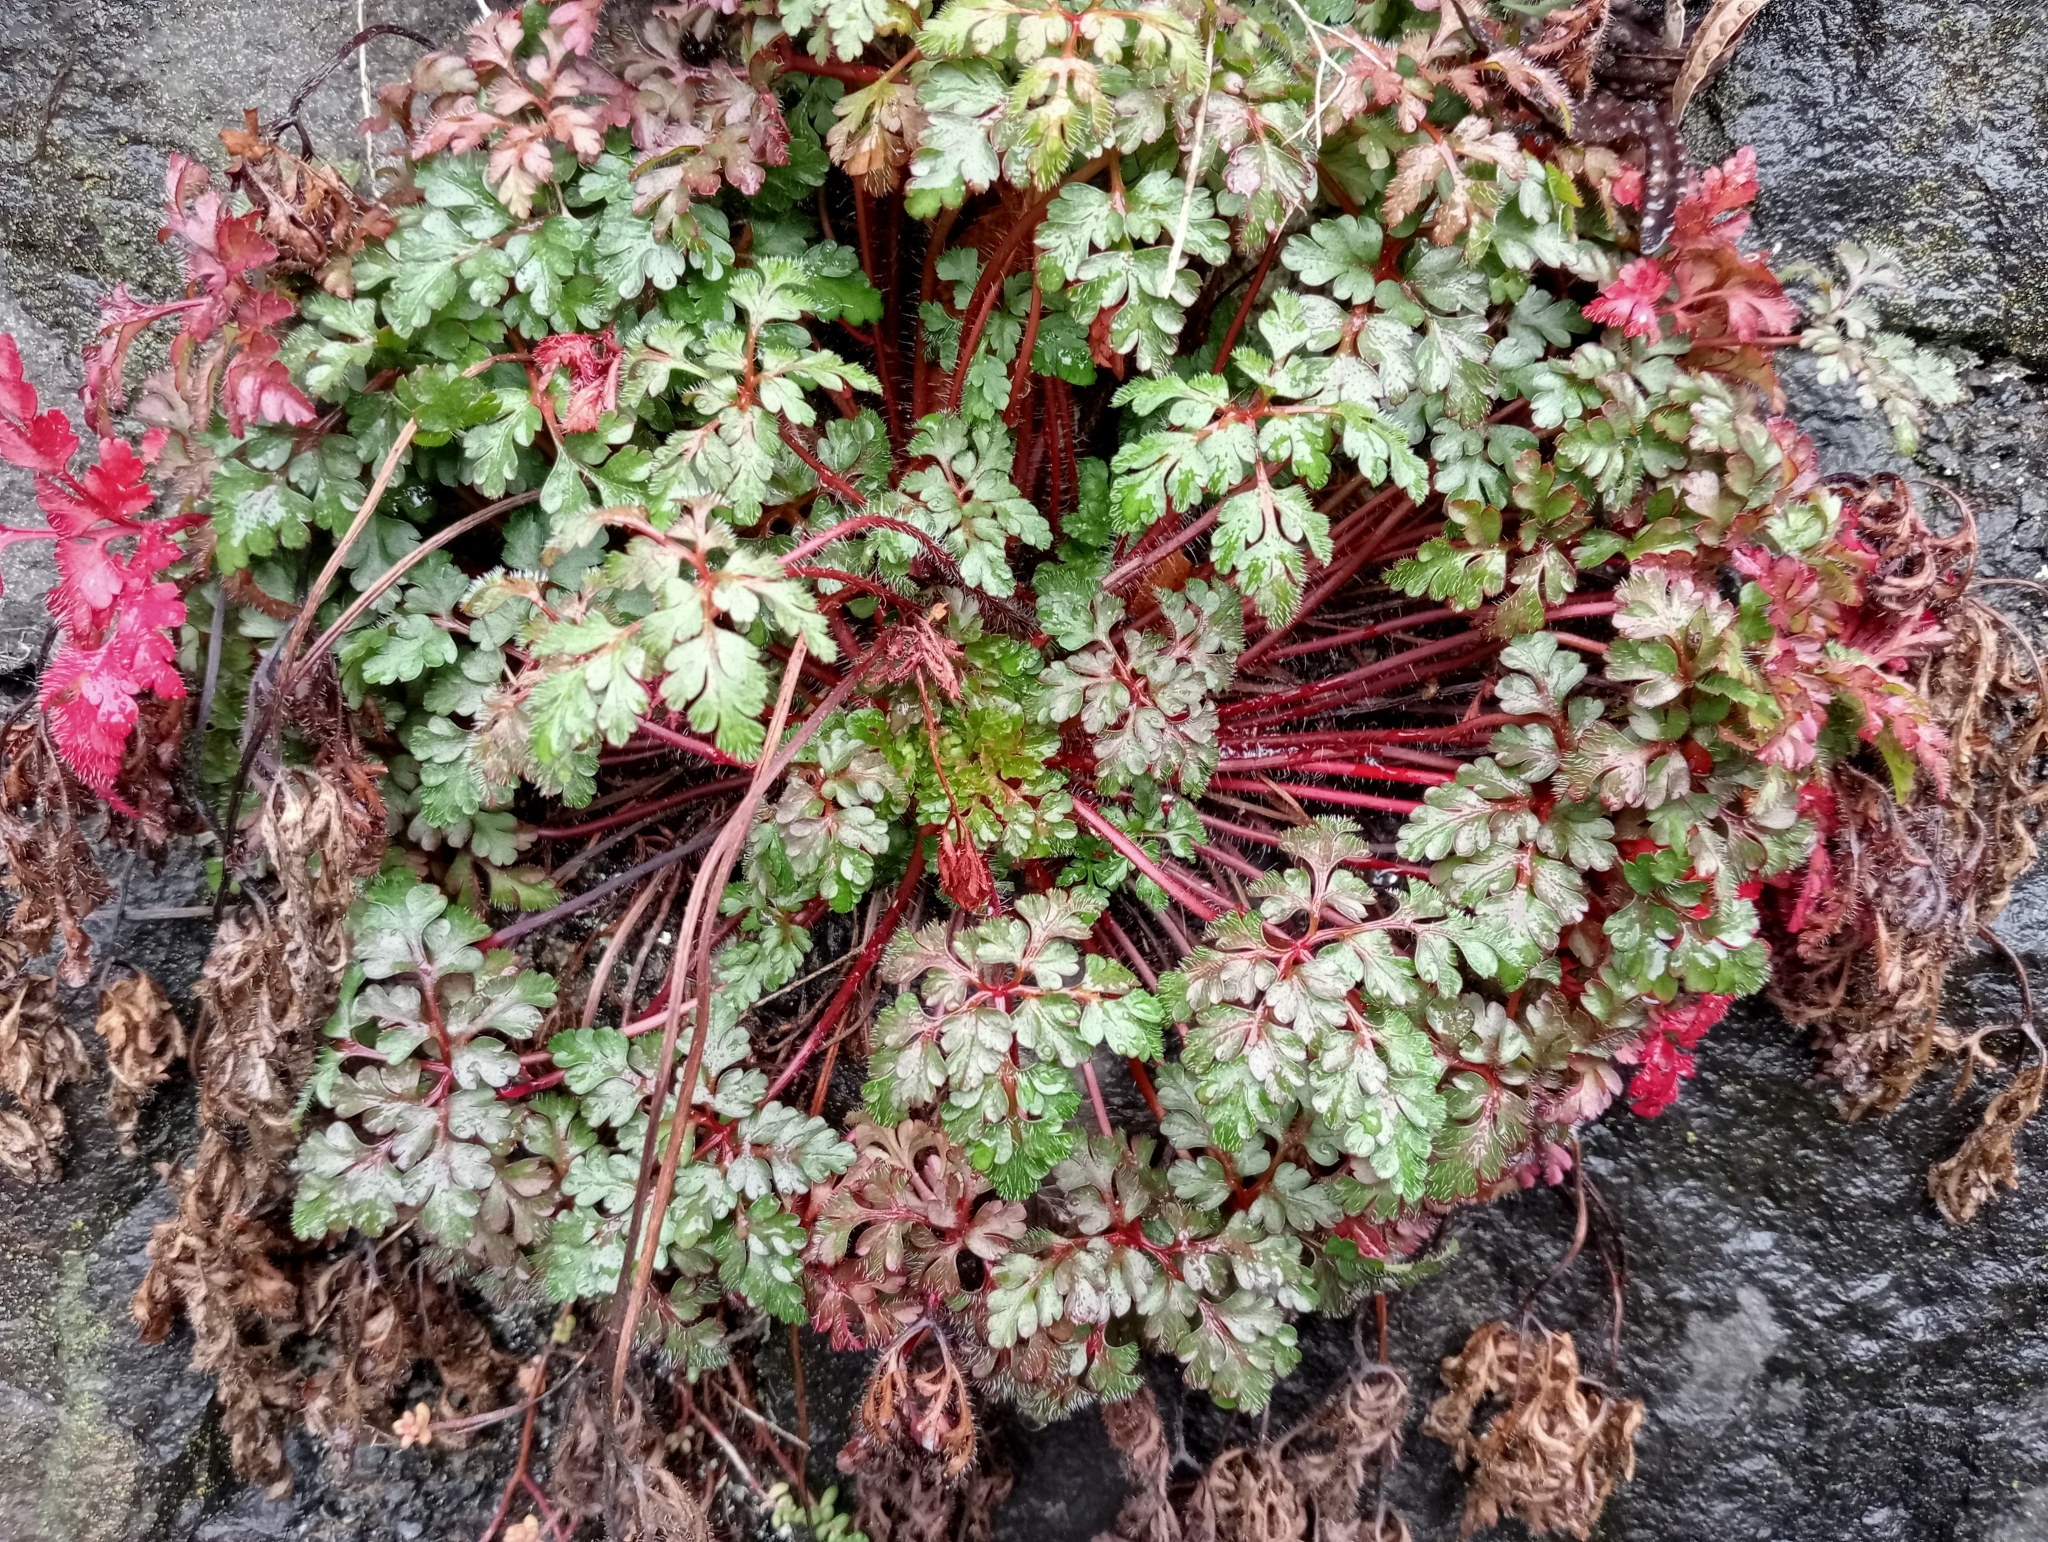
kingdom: Plantae
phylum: Tracheophyta
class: Magnoliopsida
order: Geraniales
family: Geraniaceae
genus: Geranium
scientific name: Geranium robertianum
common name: Herb-robert
